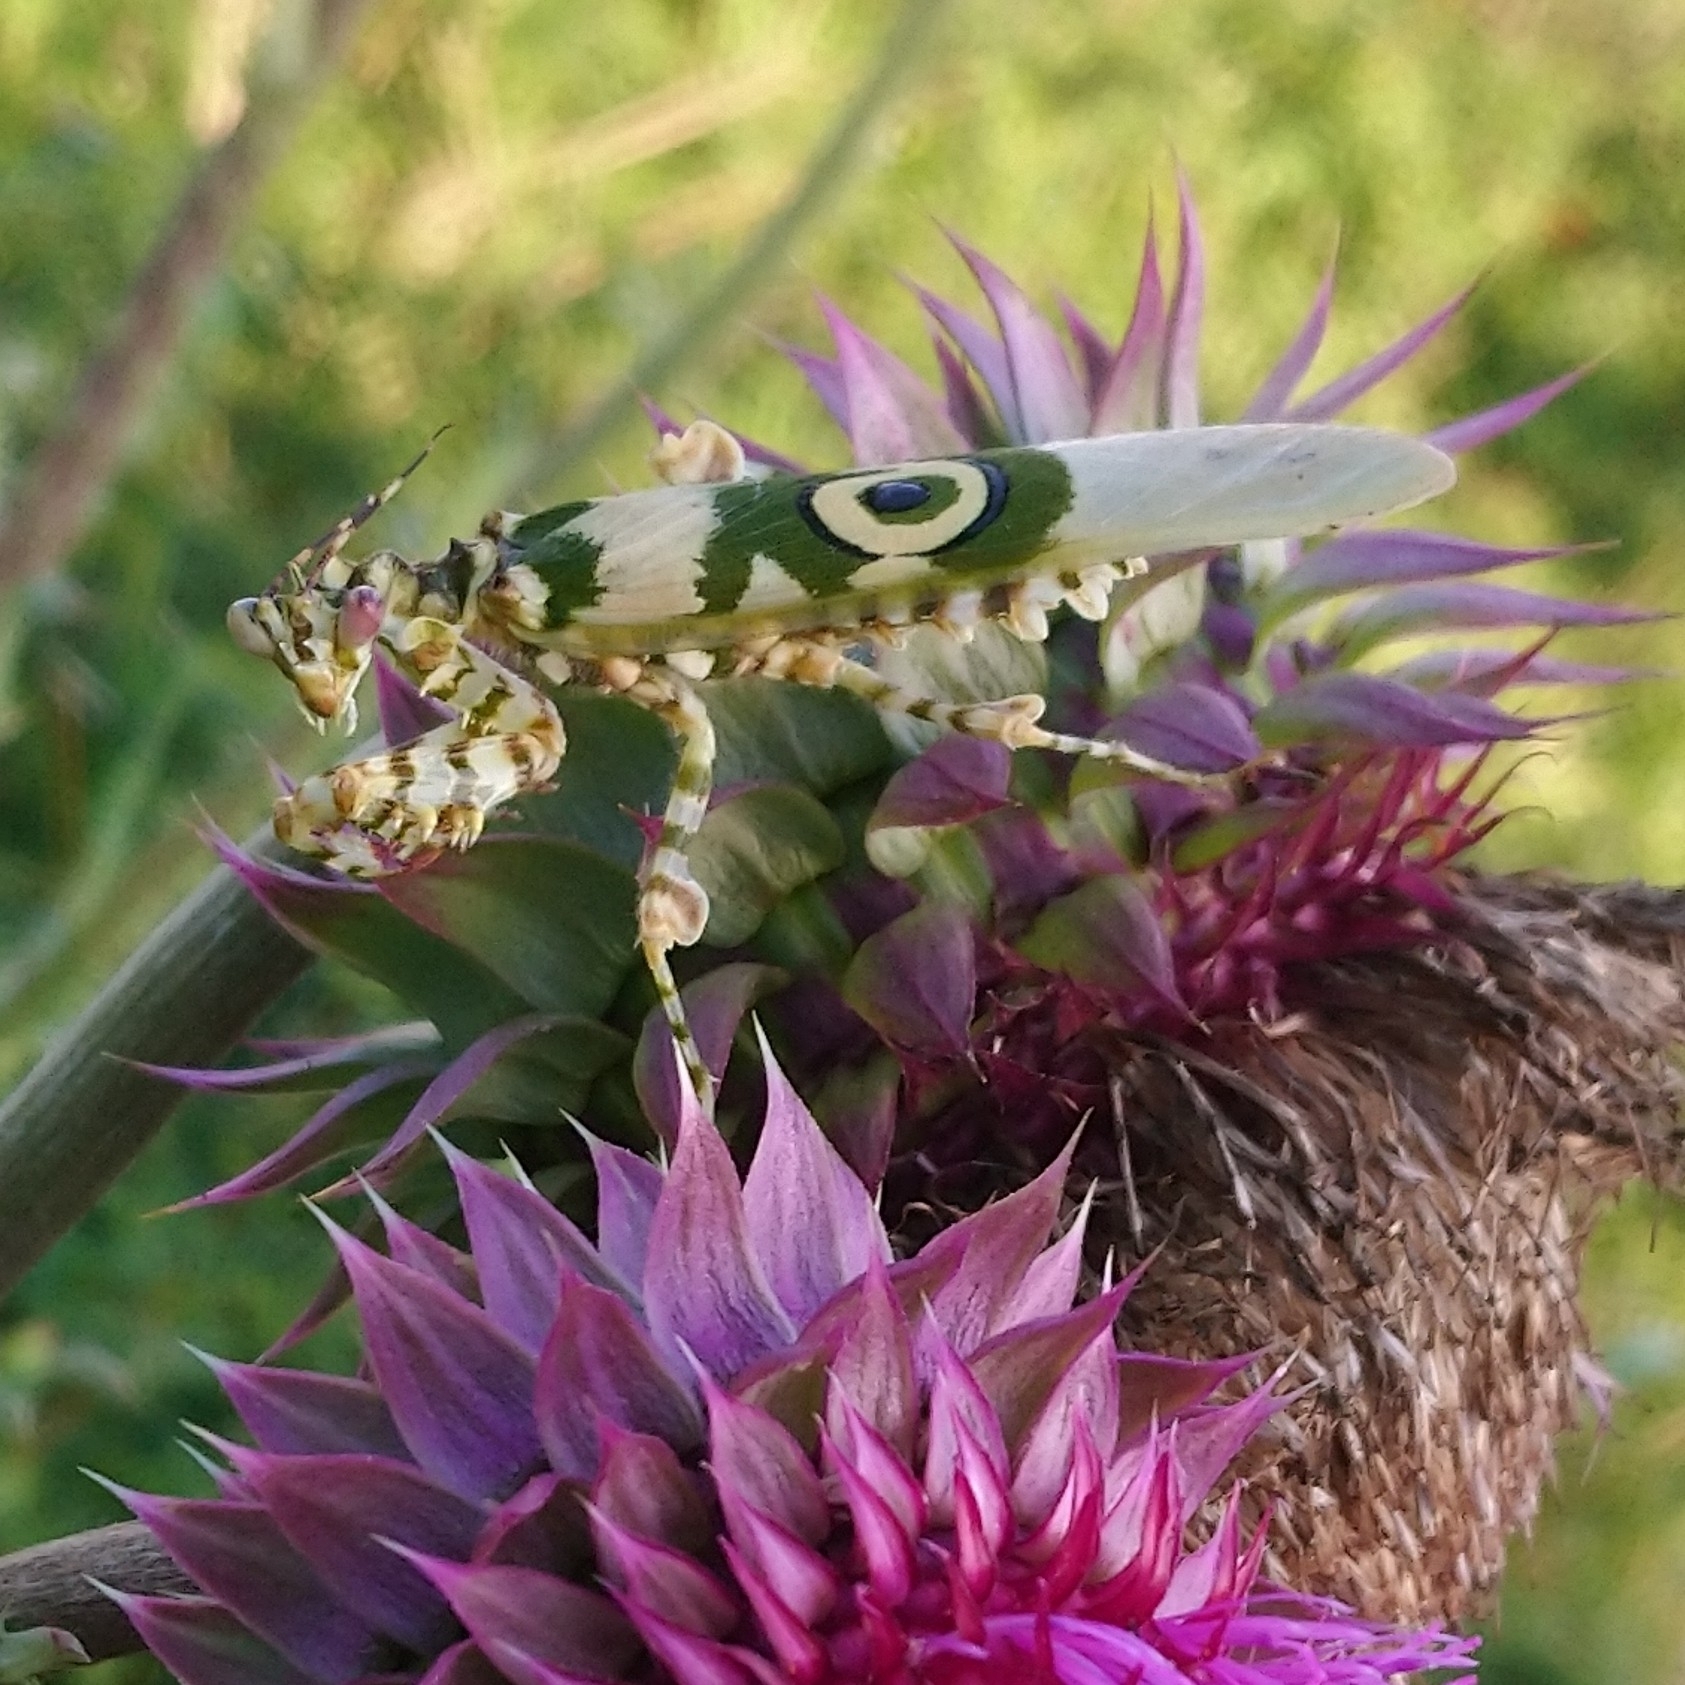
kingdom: Animalia
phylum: Arthropoda
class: Insecta
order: Mantodea
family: Hymenopodidae
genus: Pseudocreobotra
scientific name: Pseudocreobotra wahlbergi
